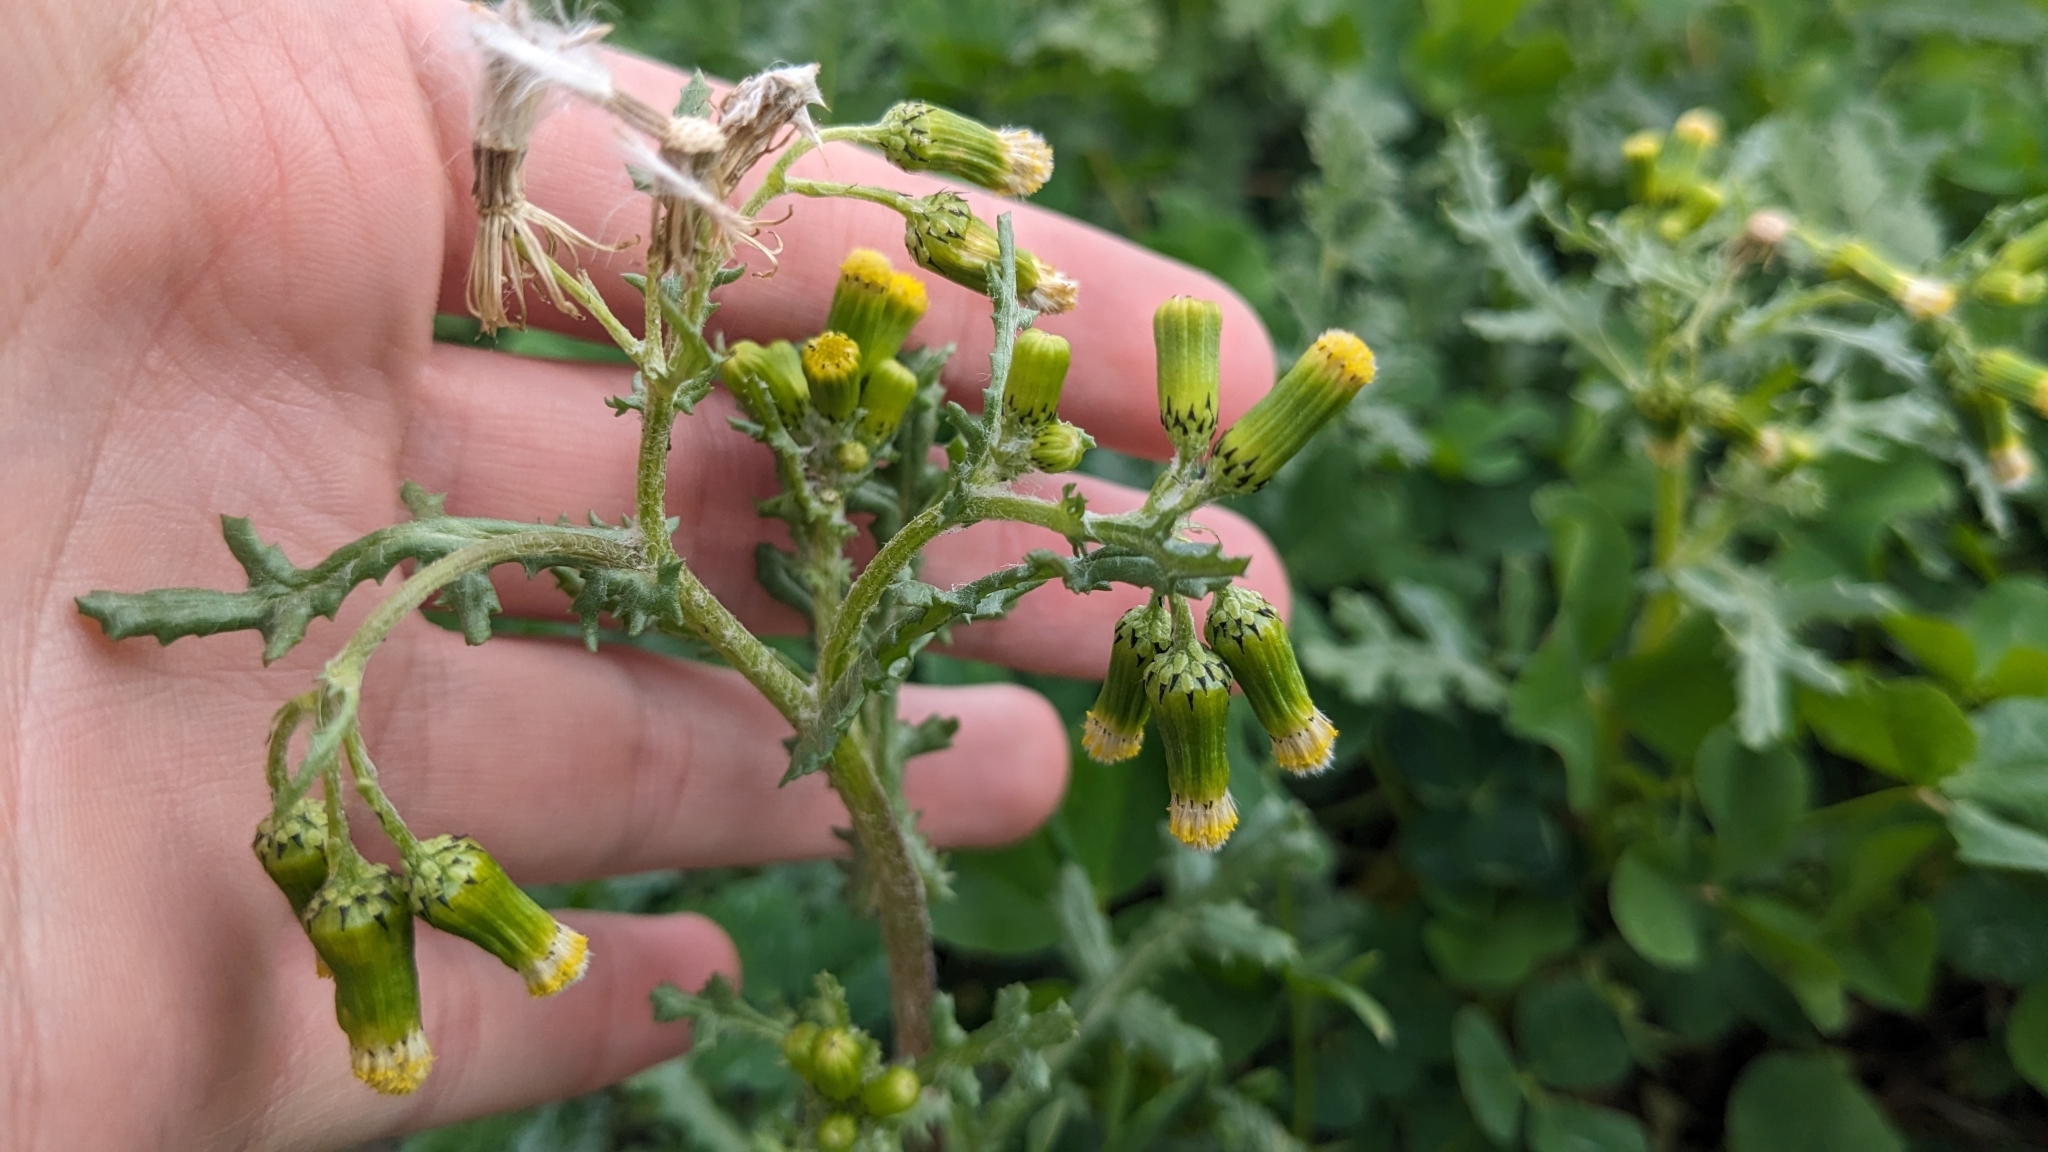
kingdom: Plantae
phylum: Tracheophyta
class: Magnoliopsida
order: Asterales
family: Asteraceae
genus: Senecio
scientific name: Senecio vulgaris
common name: Old-man-in-the-spring
